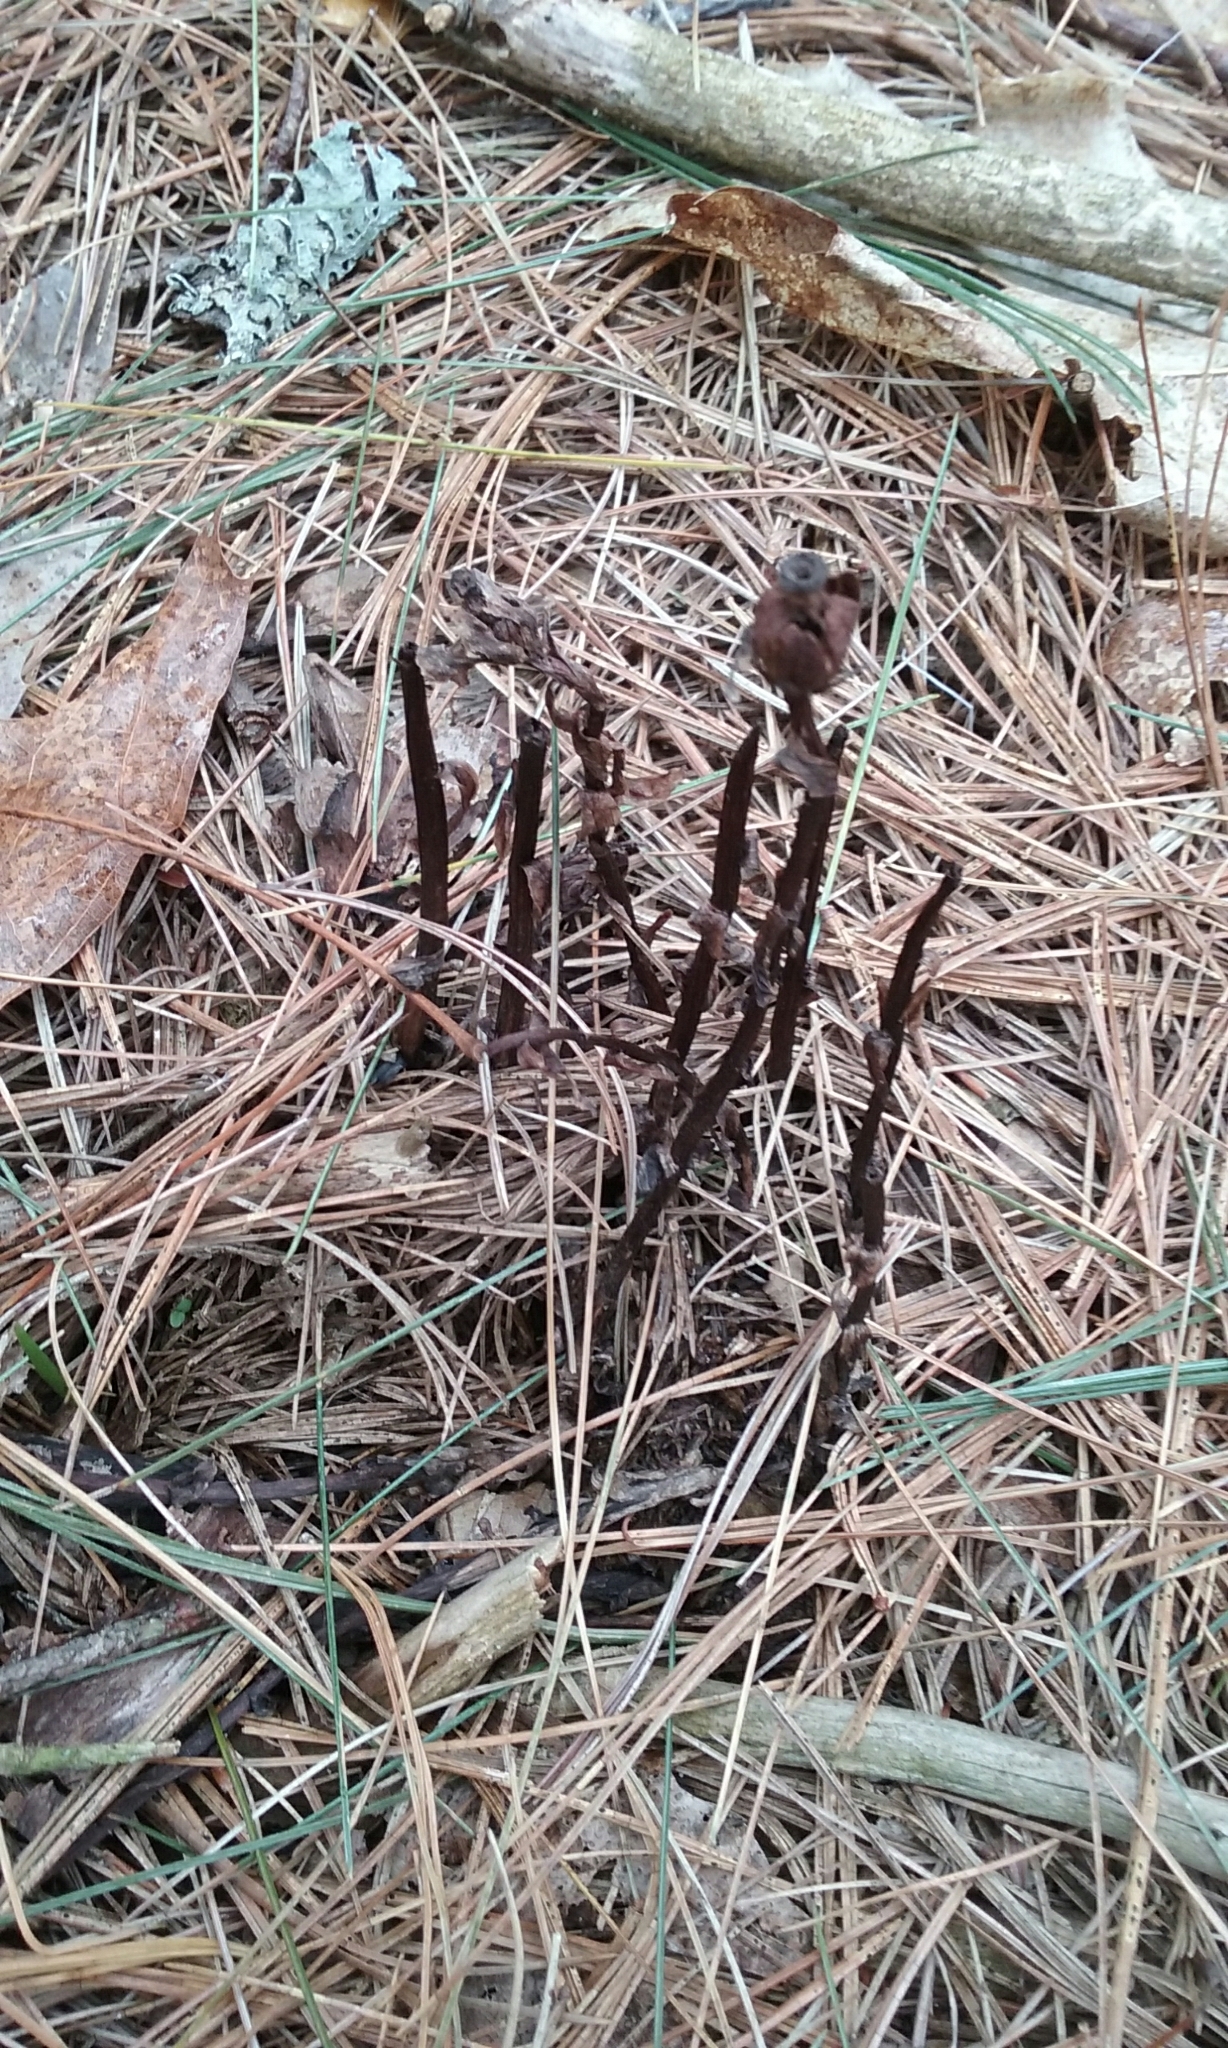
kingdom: Plantae
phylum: Tracheophyta
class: Magnoliopsida
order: Ericales
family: Ericaceae
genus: Monotropa
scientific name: Monotropa uniflora
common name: Convulsion root
